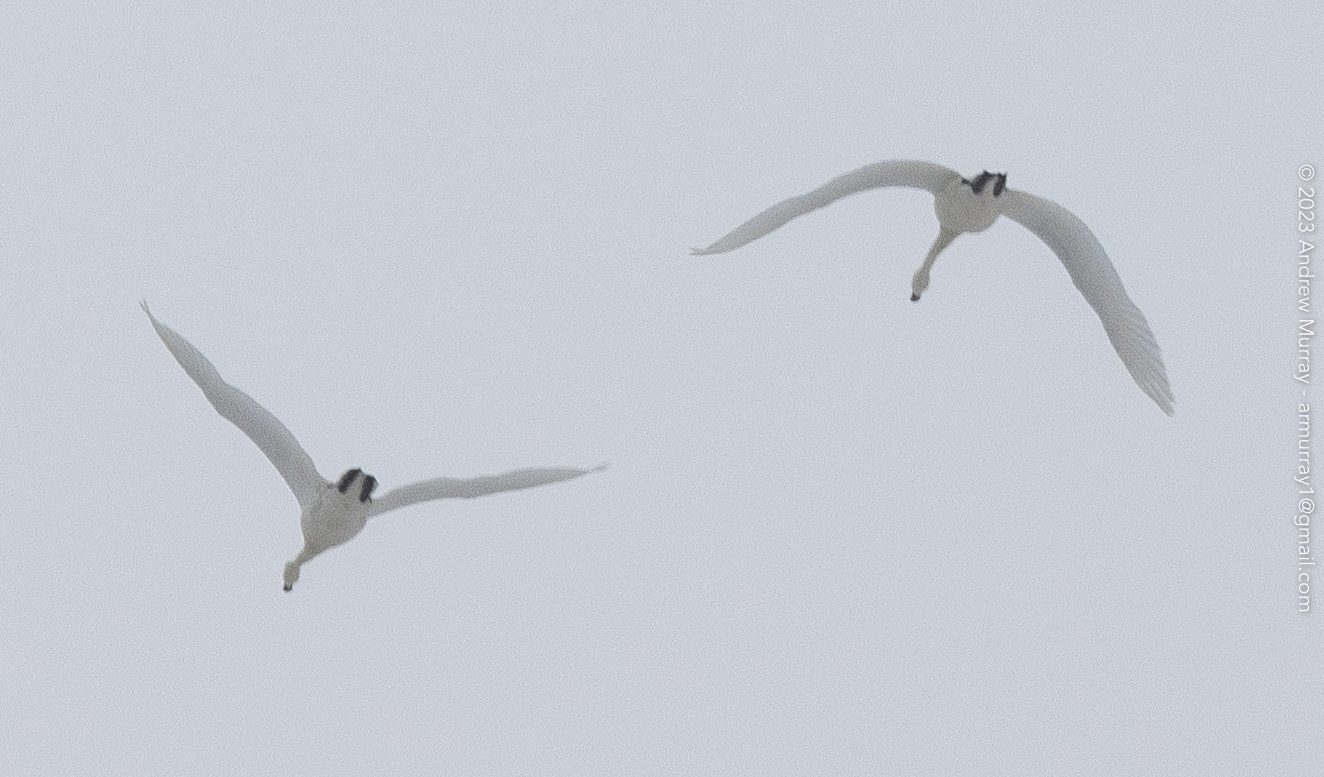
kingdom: Animalia
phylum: Chordata
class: Aves
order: Anseriformes
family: Anatidae
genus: Cygnus
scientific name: Cygnus columbianus
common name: Tundra swan
